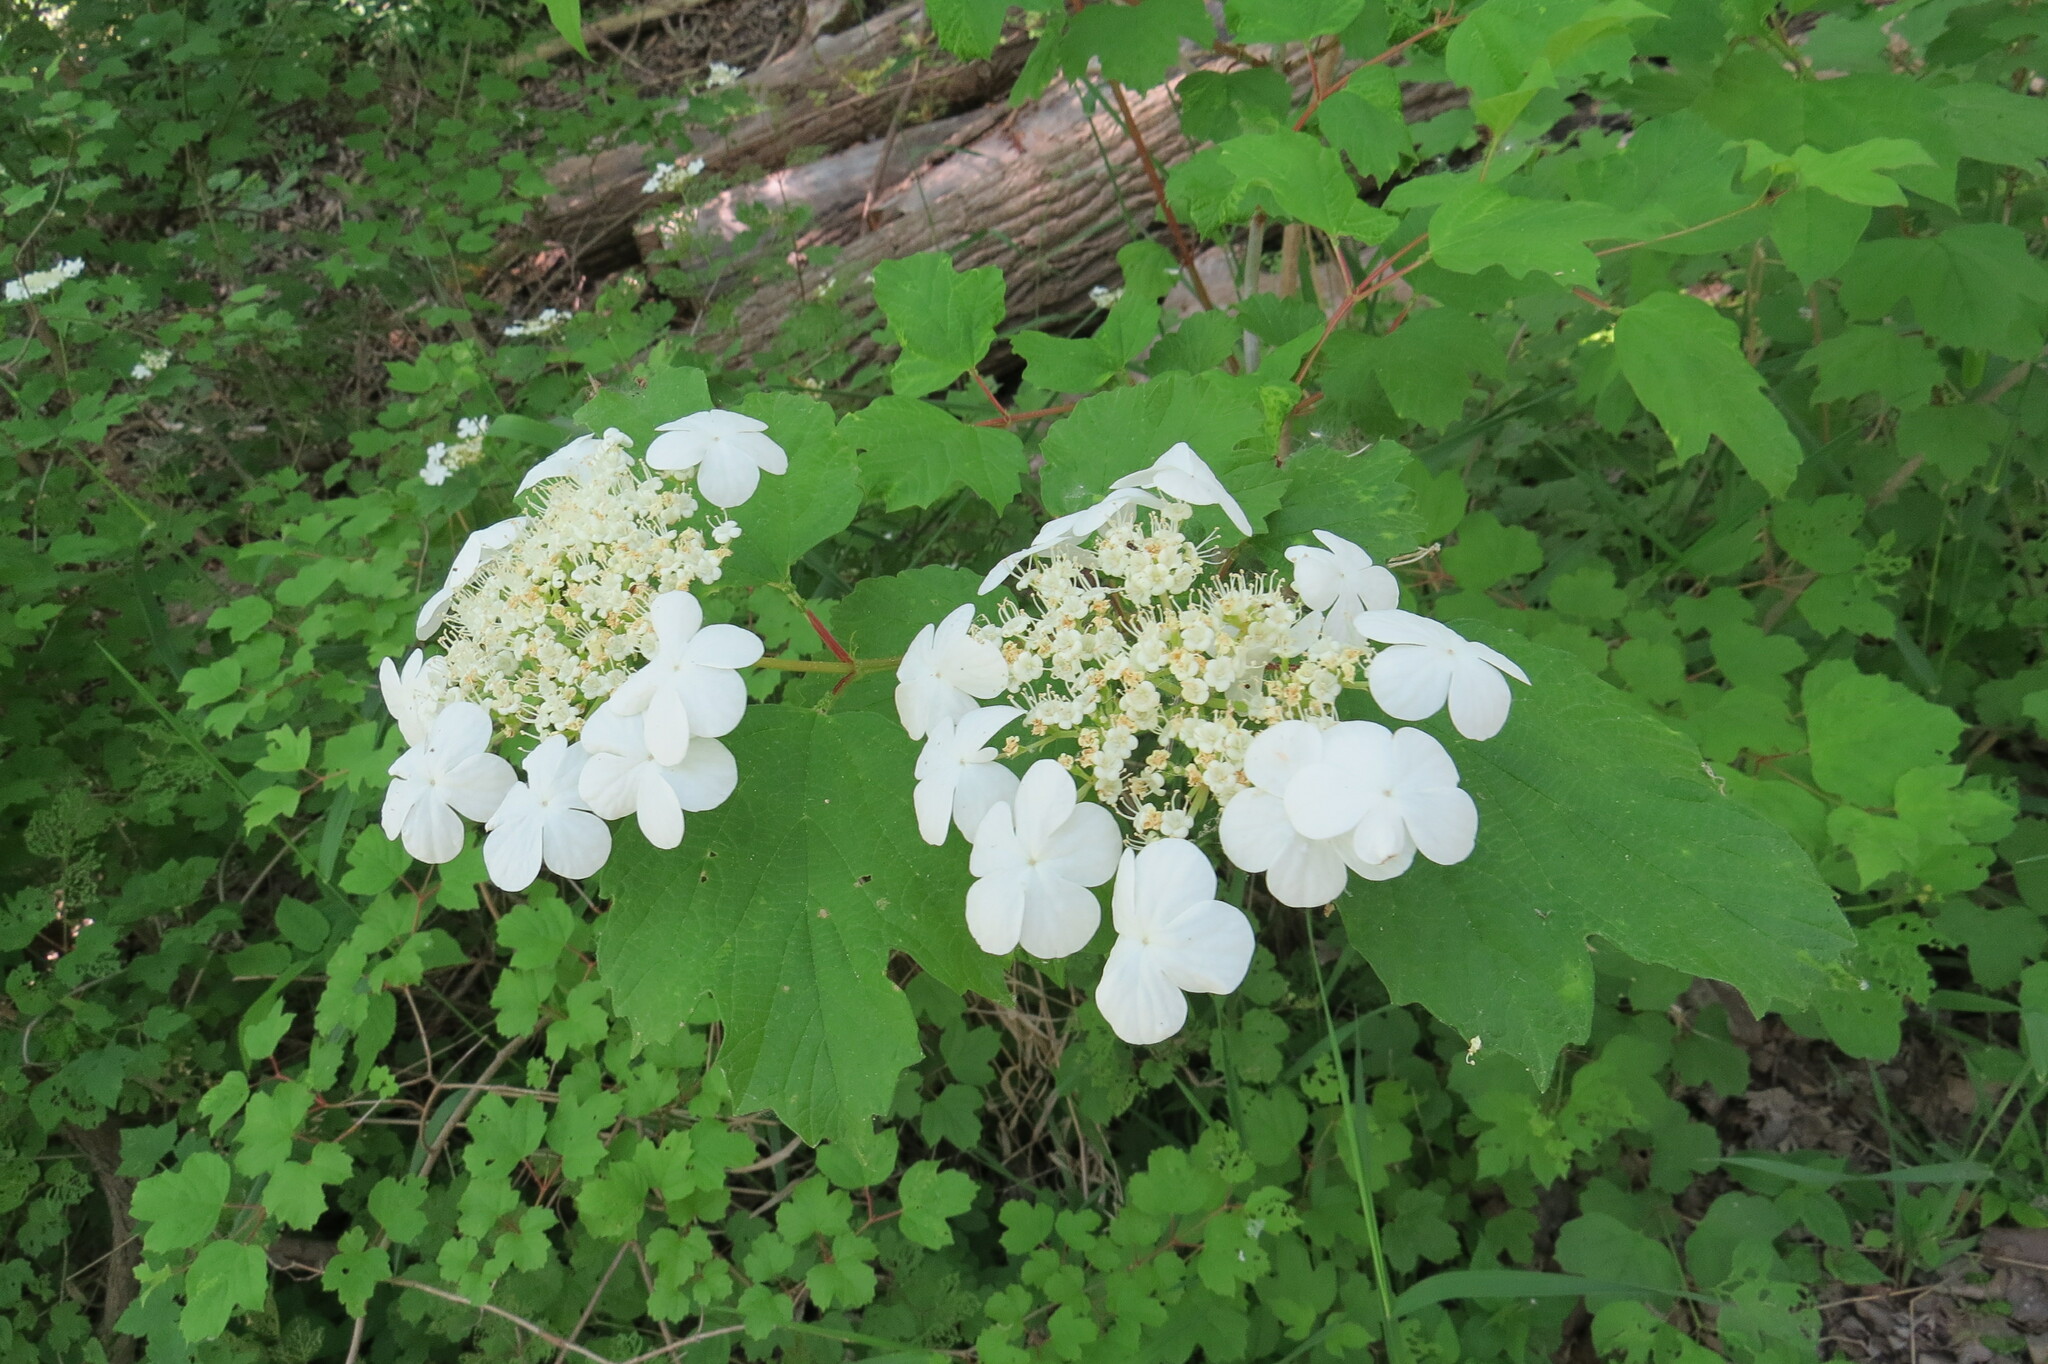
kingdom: Plantae
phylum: Tracheophyta
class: Magnoliopsida
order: Dipsacales
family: Viburnaceae
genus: Viburnum
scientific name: Viburnum opulus
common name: Guelder-rose
